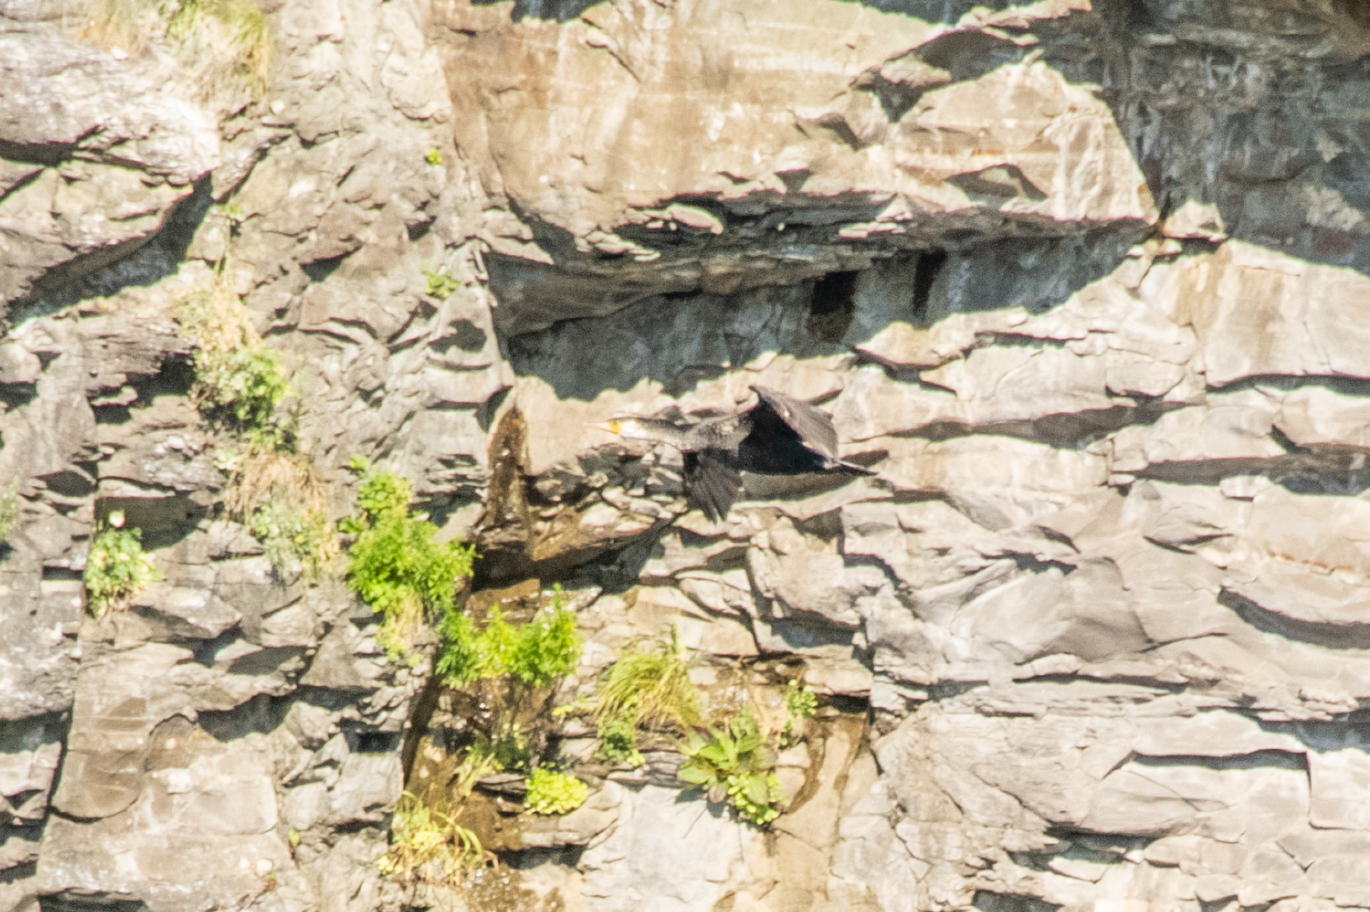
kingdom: Animalia
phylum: Chordata
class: Aves
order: Suliformes
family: Phalacrocoracidae
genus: Phalacrocorax
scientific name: Phalacrocorax capillatus
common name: Japanese cormorant
